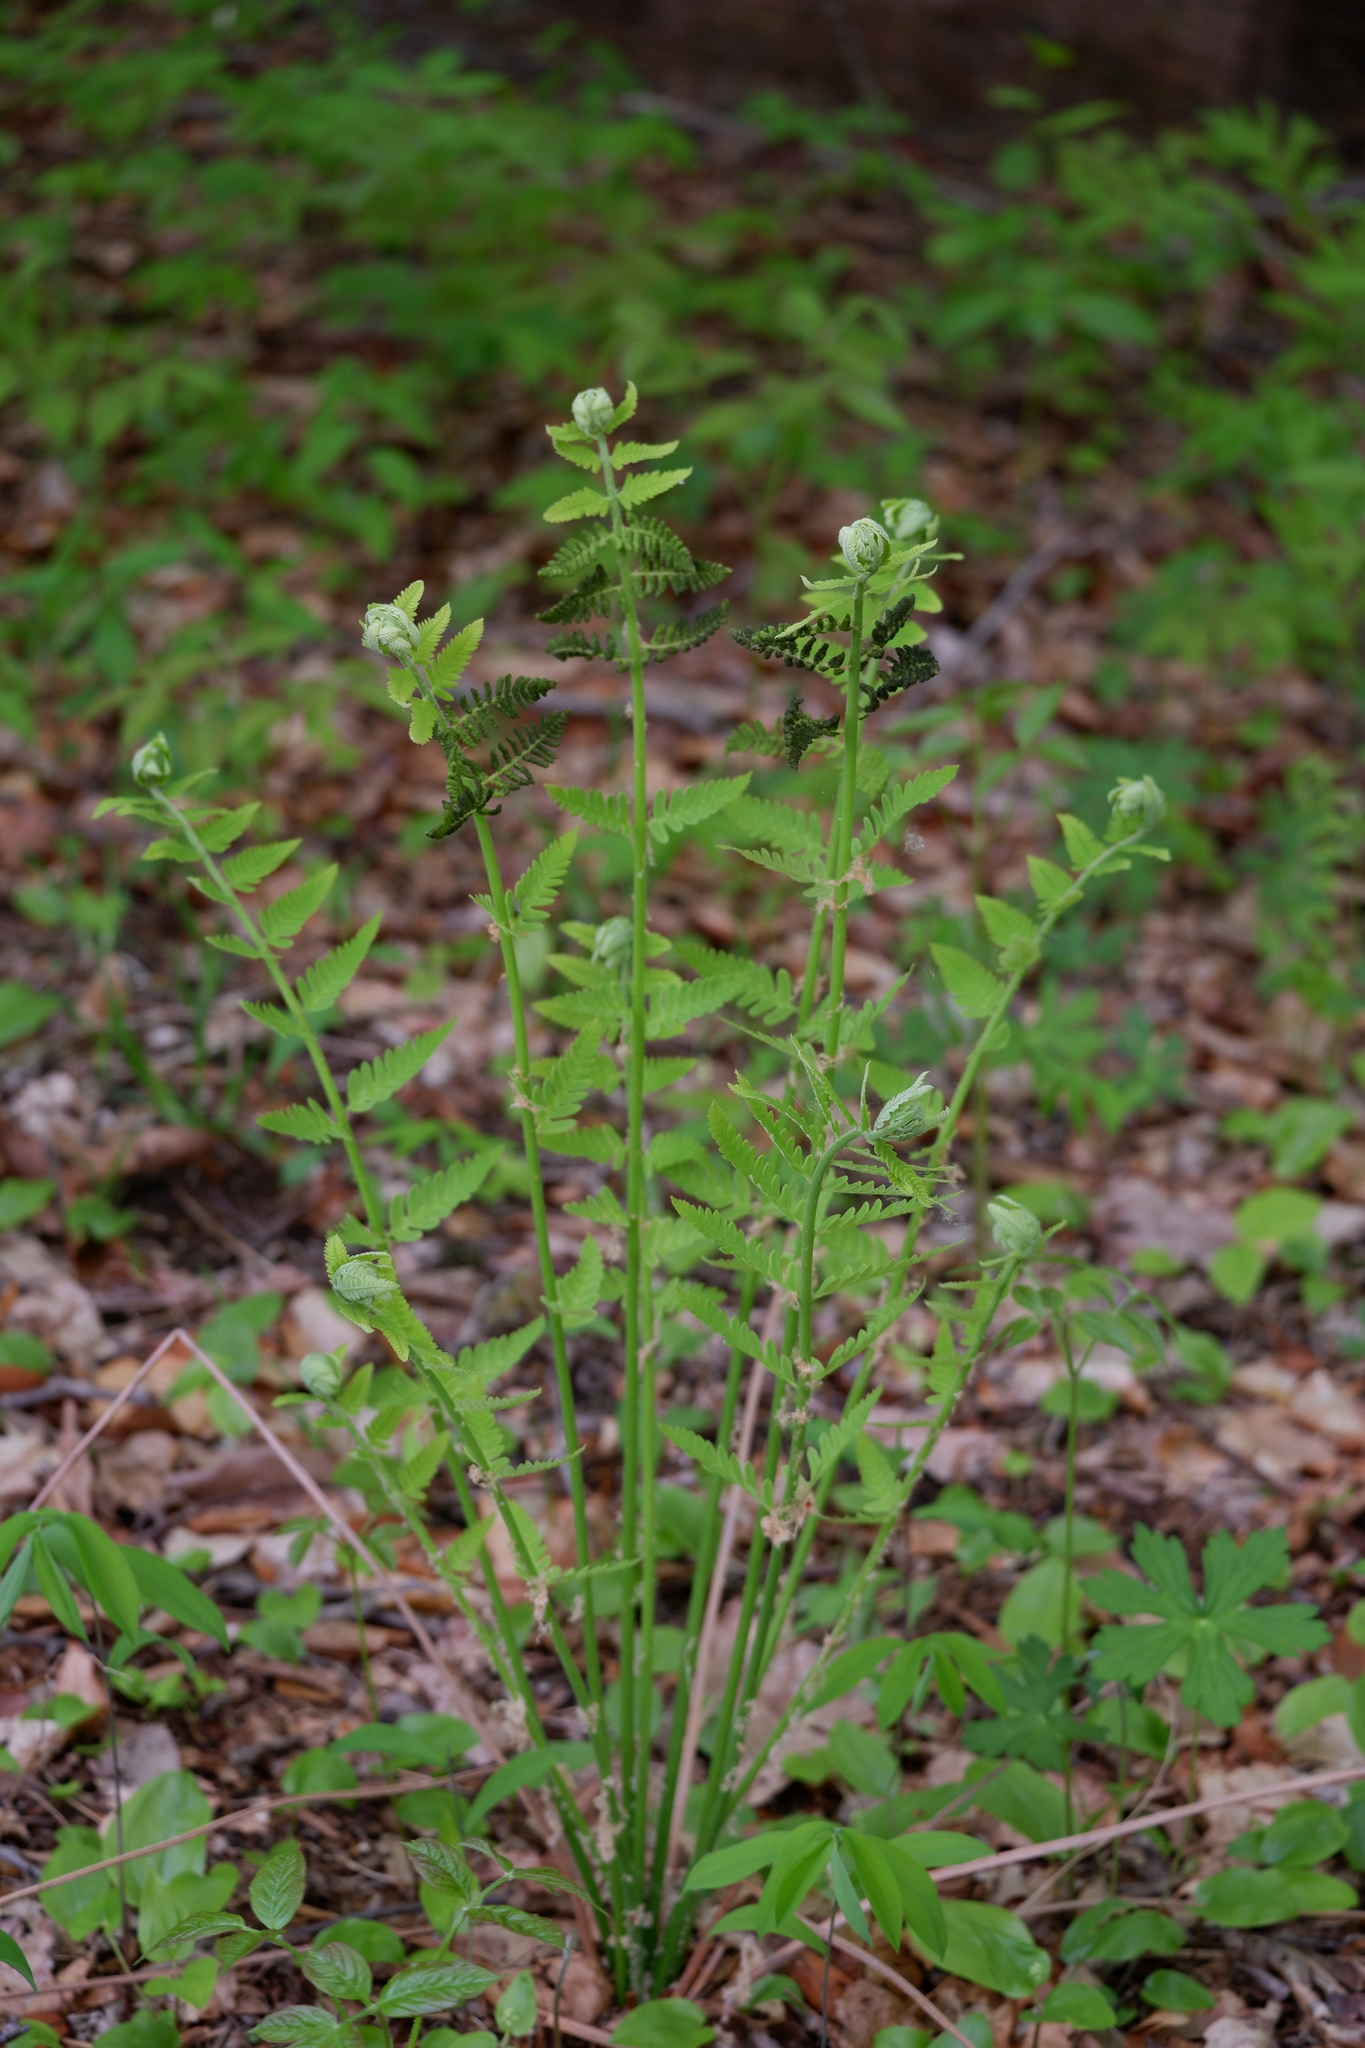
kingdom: Plantae
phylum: Tracheophyta
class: Polypodiopsida
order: Osmundales
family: Osmundaceae
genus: Claytosmunda
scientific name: Claytosmunda claytoniana
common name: Clayton's fern
